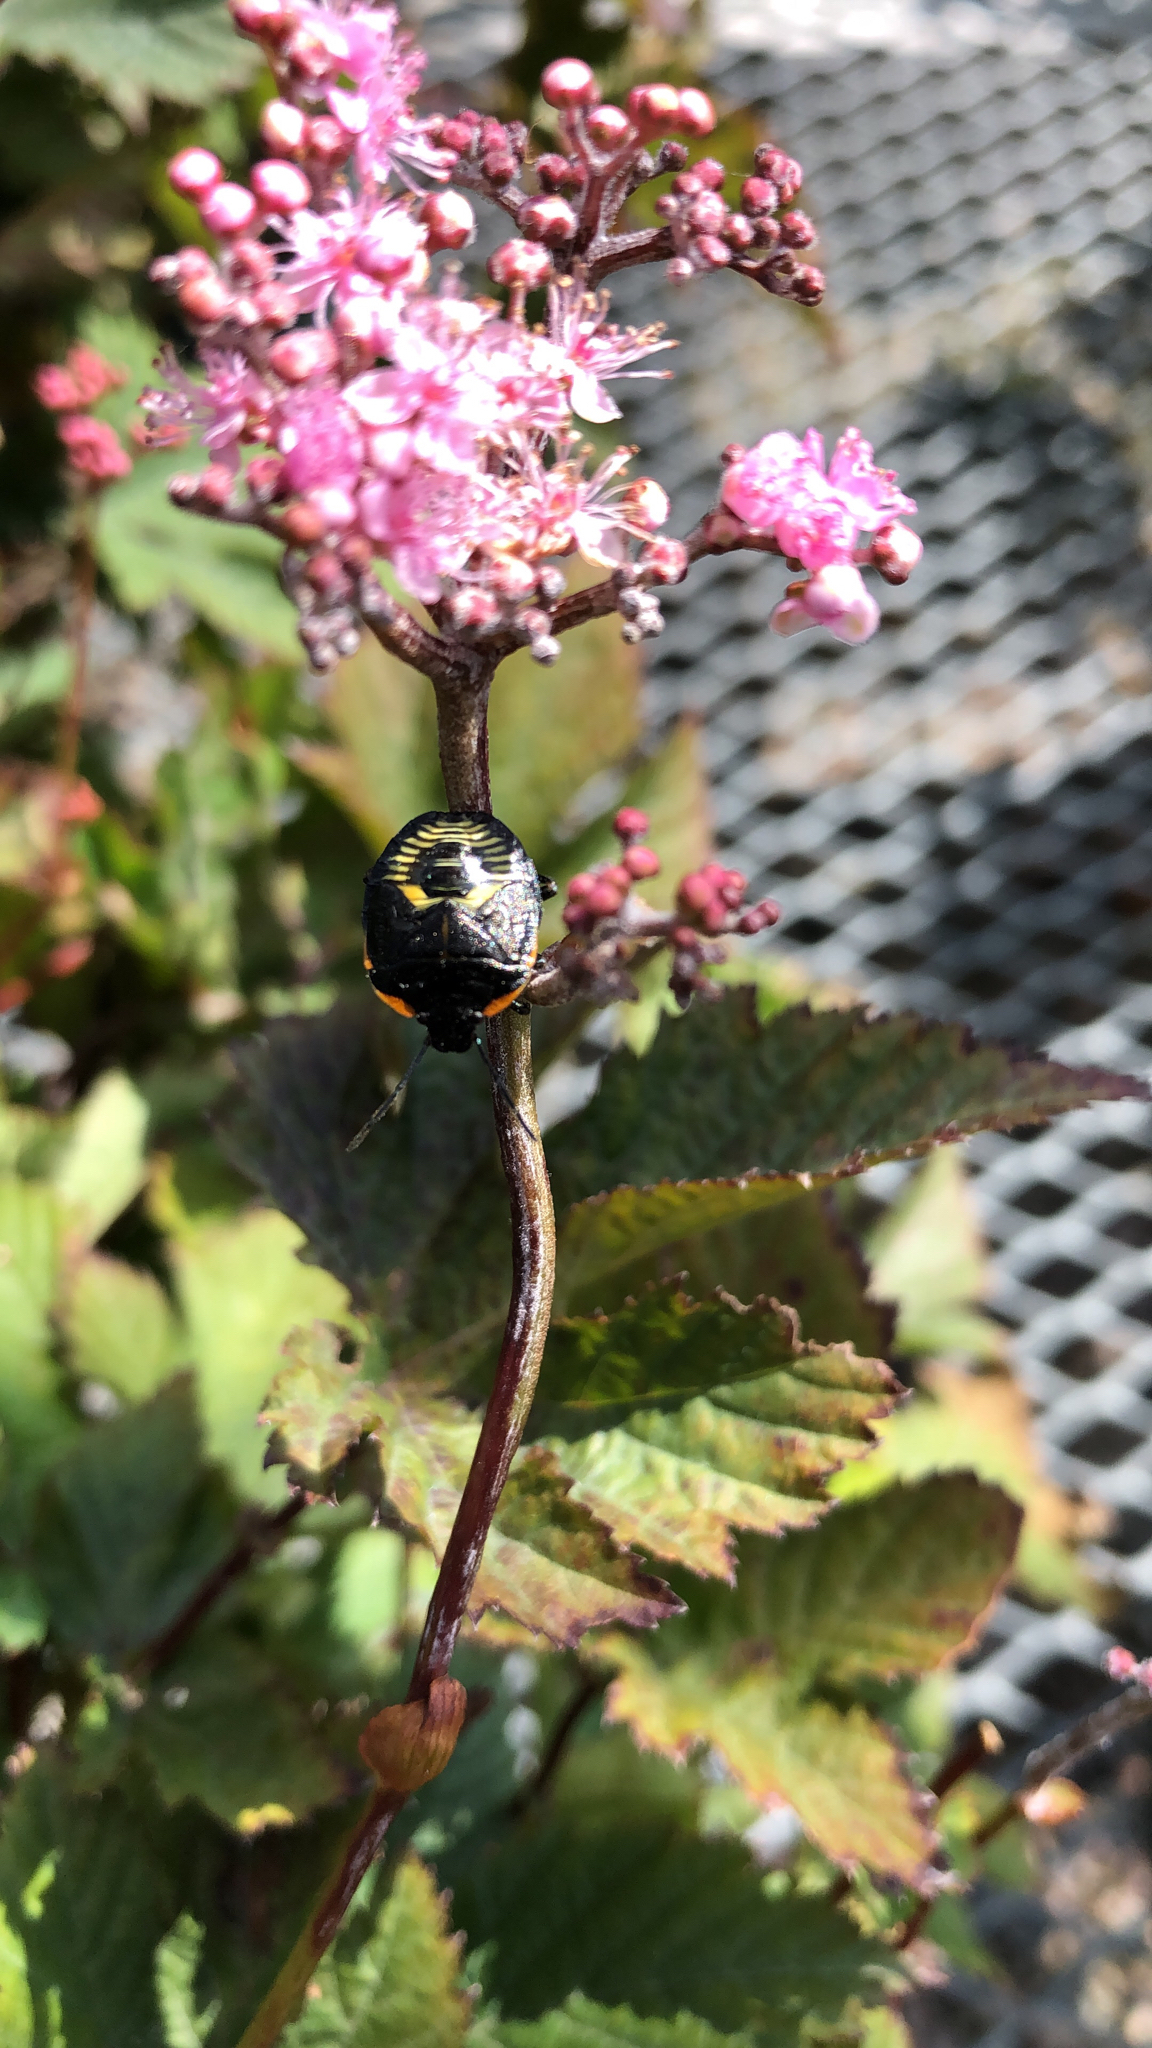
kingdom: Animalia
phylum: Arthropoda
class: Insecta
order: Hemiptera
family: Pentatomidae
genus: Chinavia
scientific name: Chinavia hilaris
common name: Green stink bug
